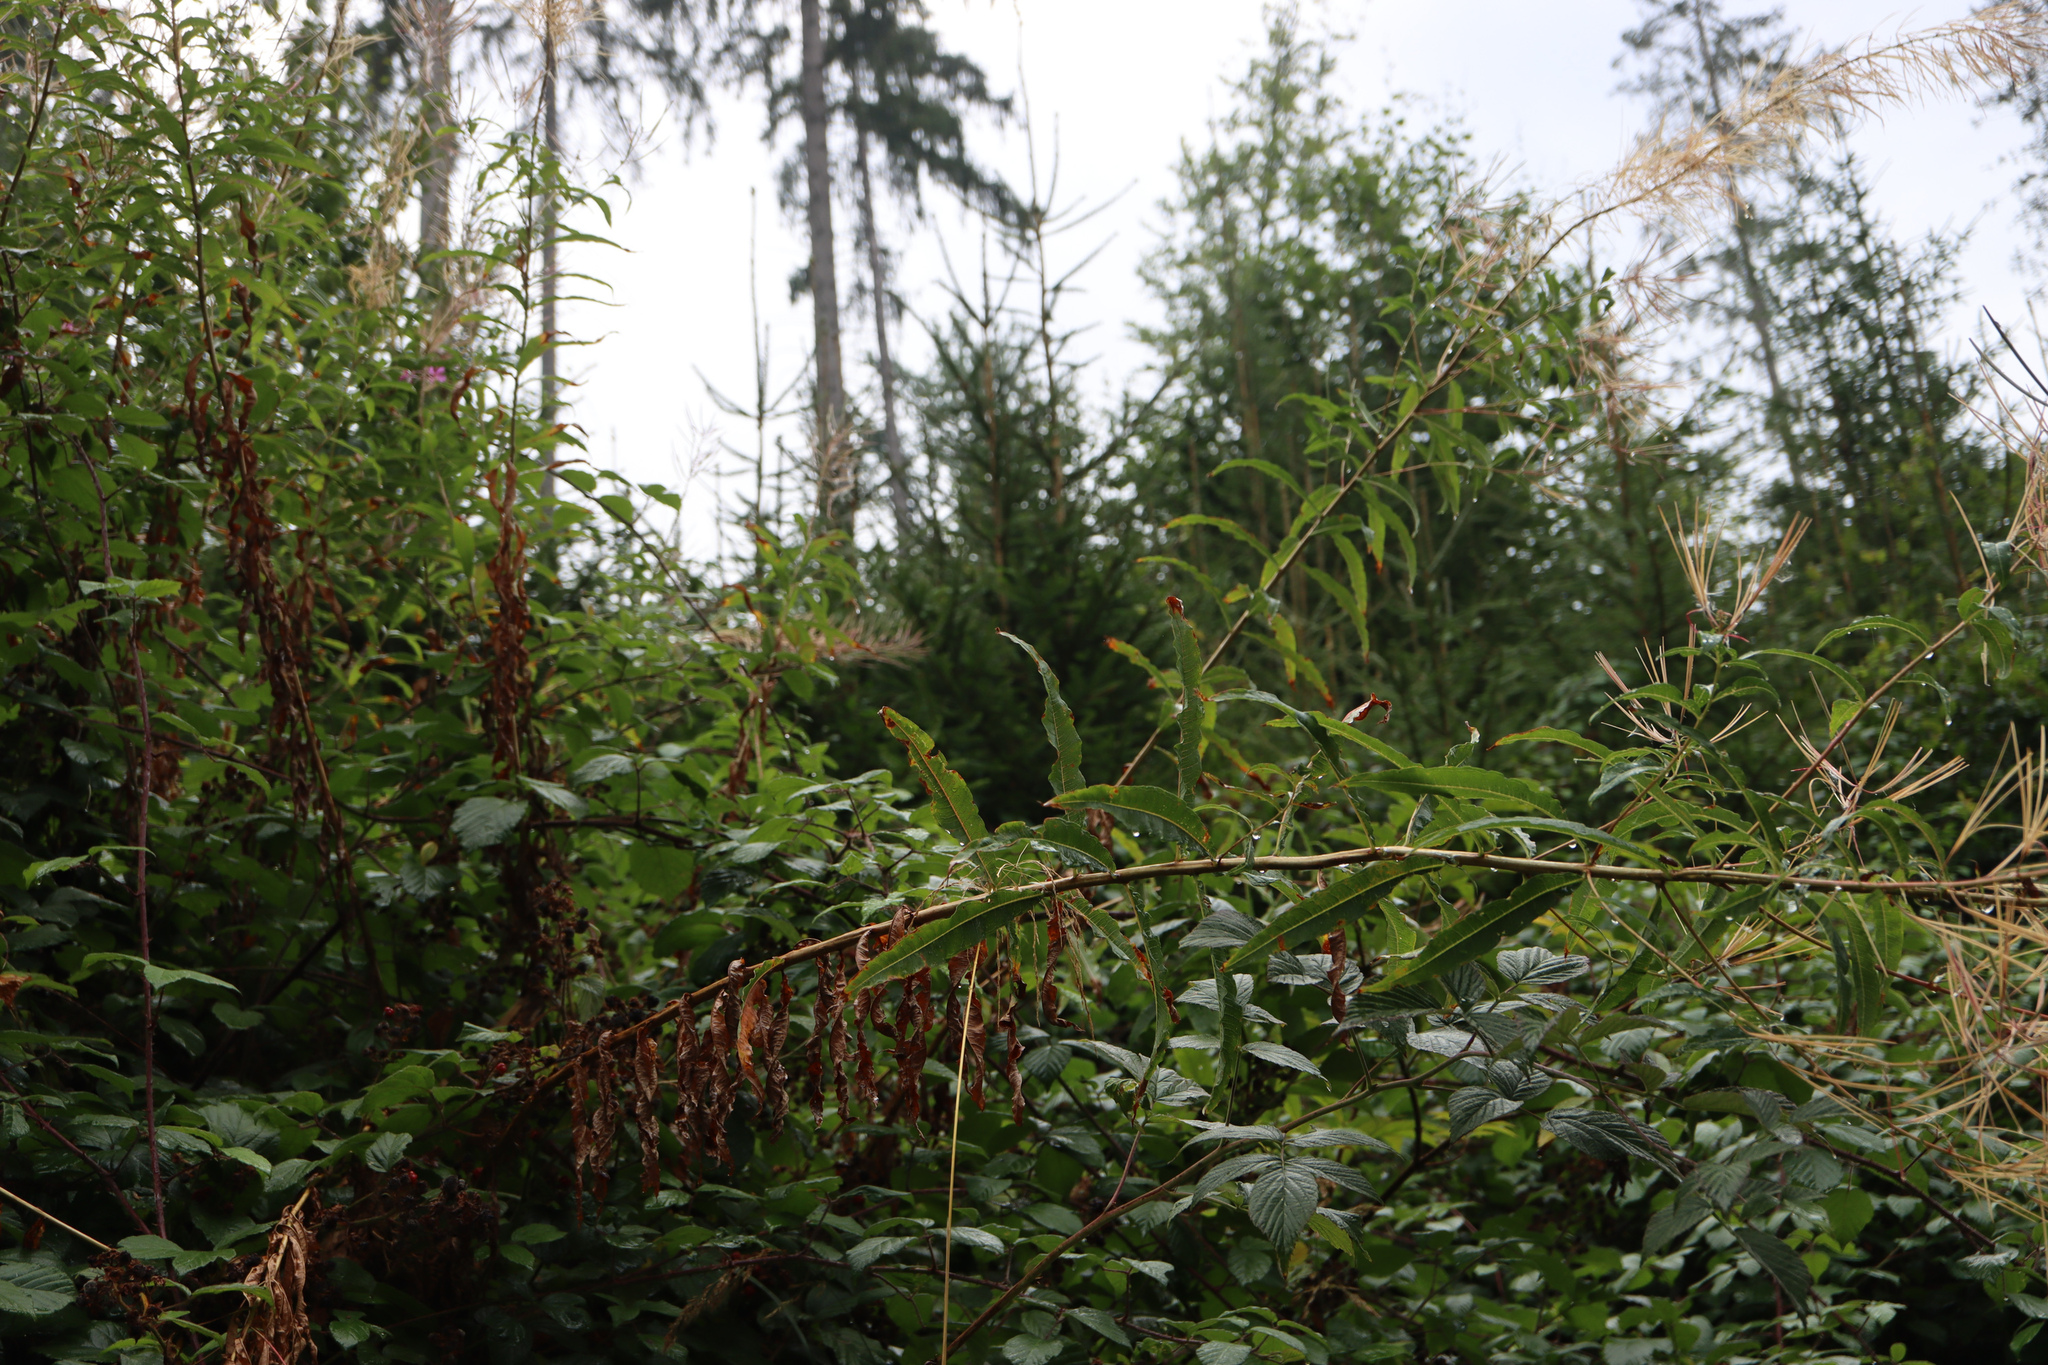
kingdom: Plantae
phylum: Tracheophyta
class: Magnoliopsida
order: Myrtales
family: Onagraceae
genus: Chamaenerion
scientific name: Chamaenerion angustifolium
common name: Fireweed
